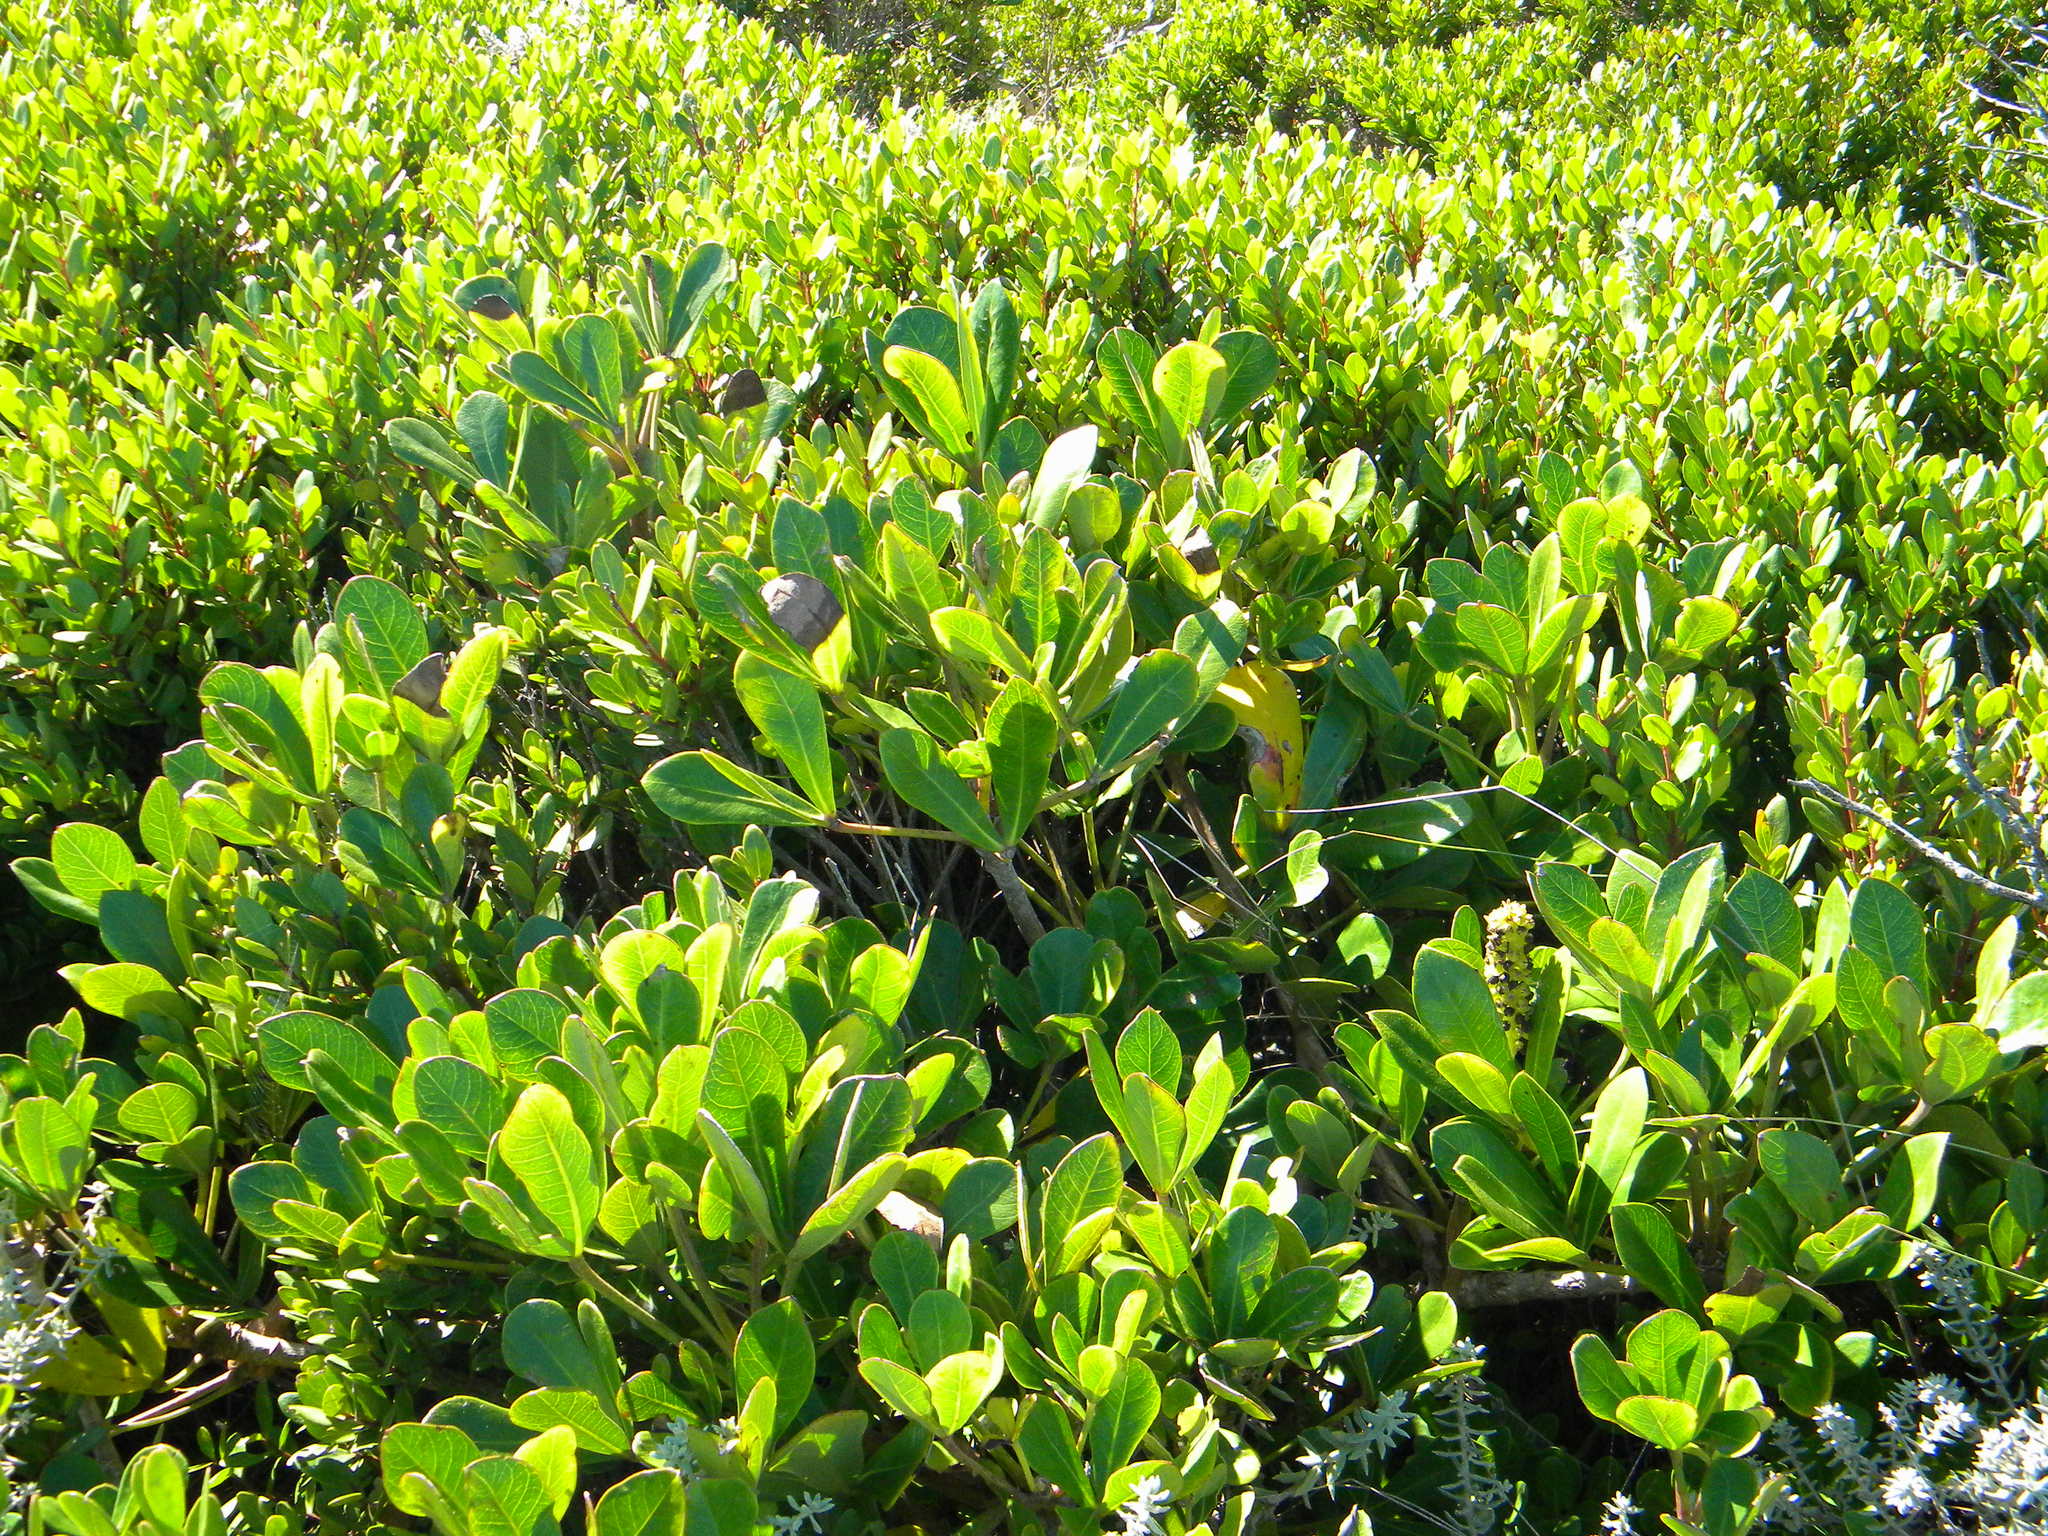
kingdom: Plantae
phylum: Tracheophyta
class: Magnoliopsida
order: Apiales
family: Araliaceae
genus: Cussonia
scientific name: Cussonia thyrsiflora
